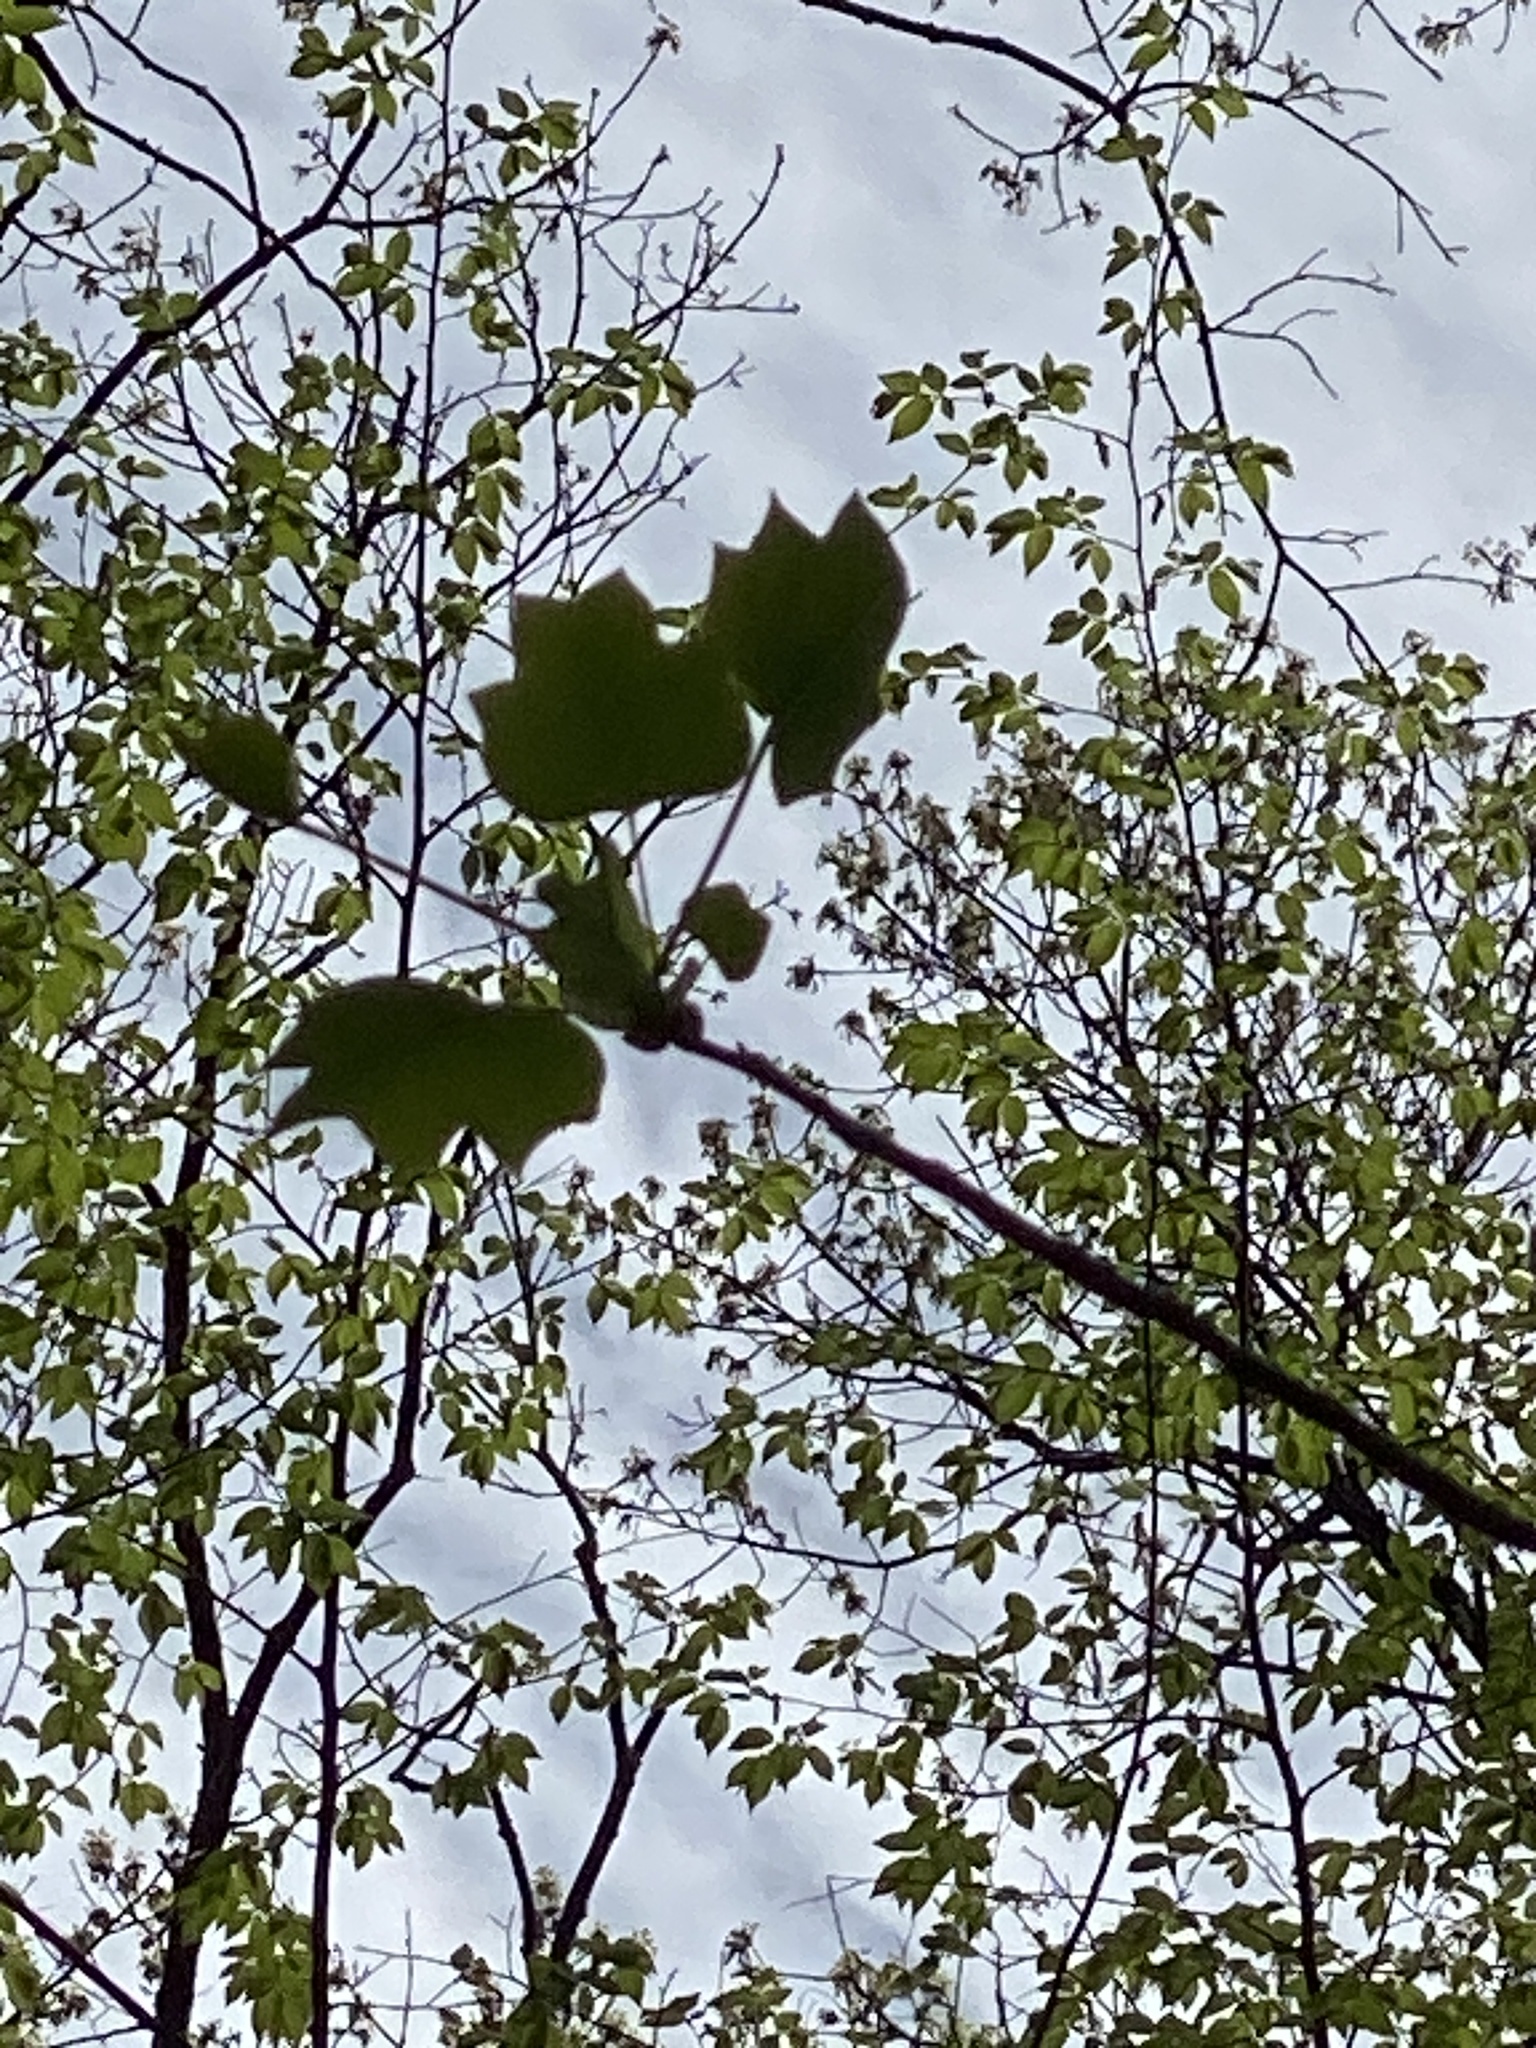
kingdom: Plantae
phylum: Tracheophyta
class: Magnoliopsida
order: Magnoliales
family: Magnoliaceae
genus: Liriodendron
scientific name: Liriodendron tulipifera
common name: Tulip tree
